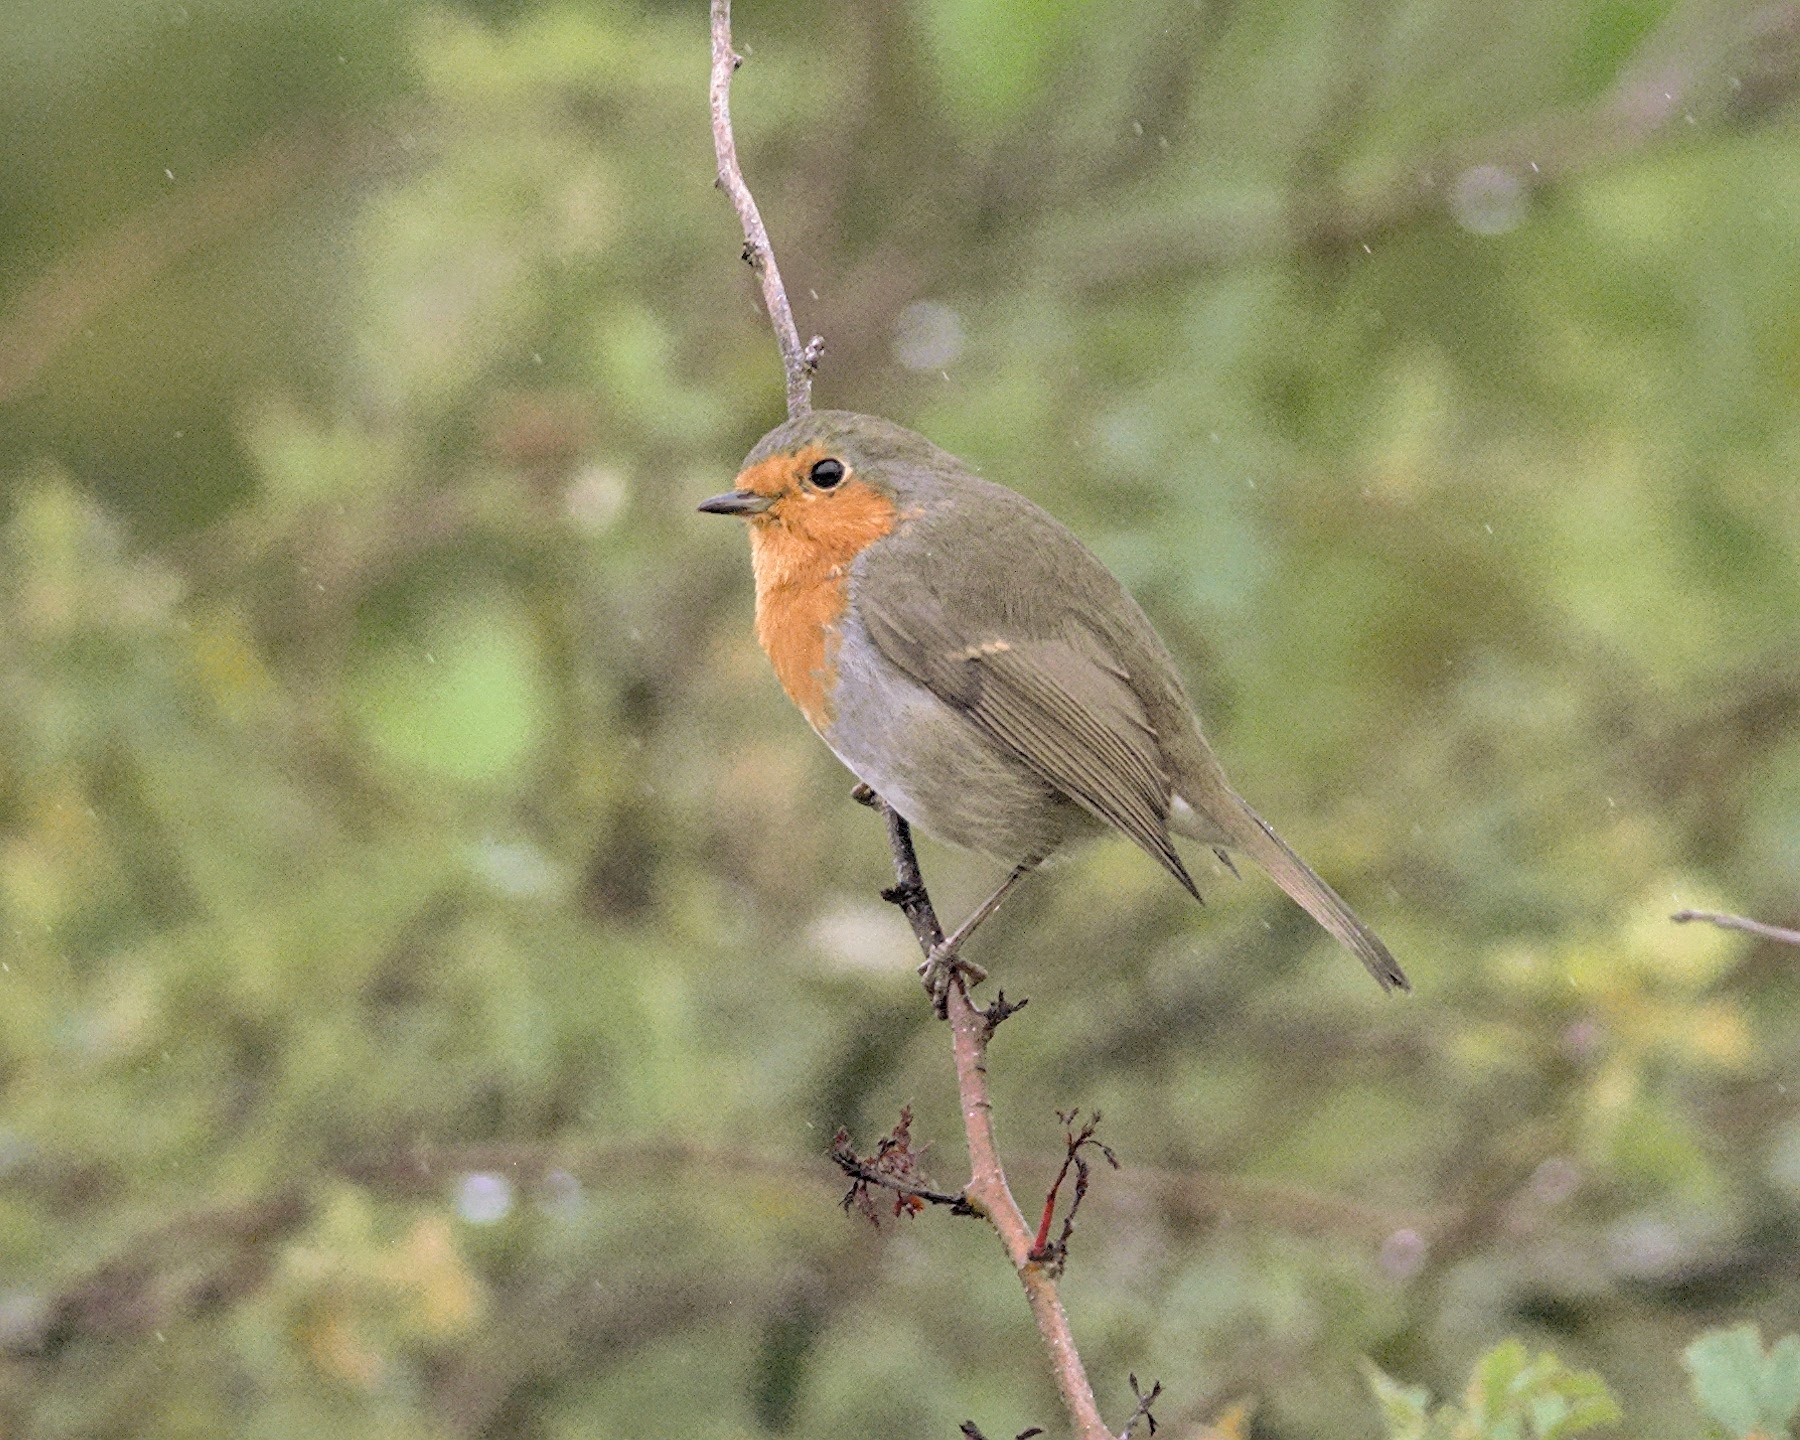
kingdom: Animalia
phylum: Chordata
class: Aves
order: Passeriformes
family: Muscicapidae
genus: Erithacus
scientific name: Erithacus rubecula
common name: European robin
